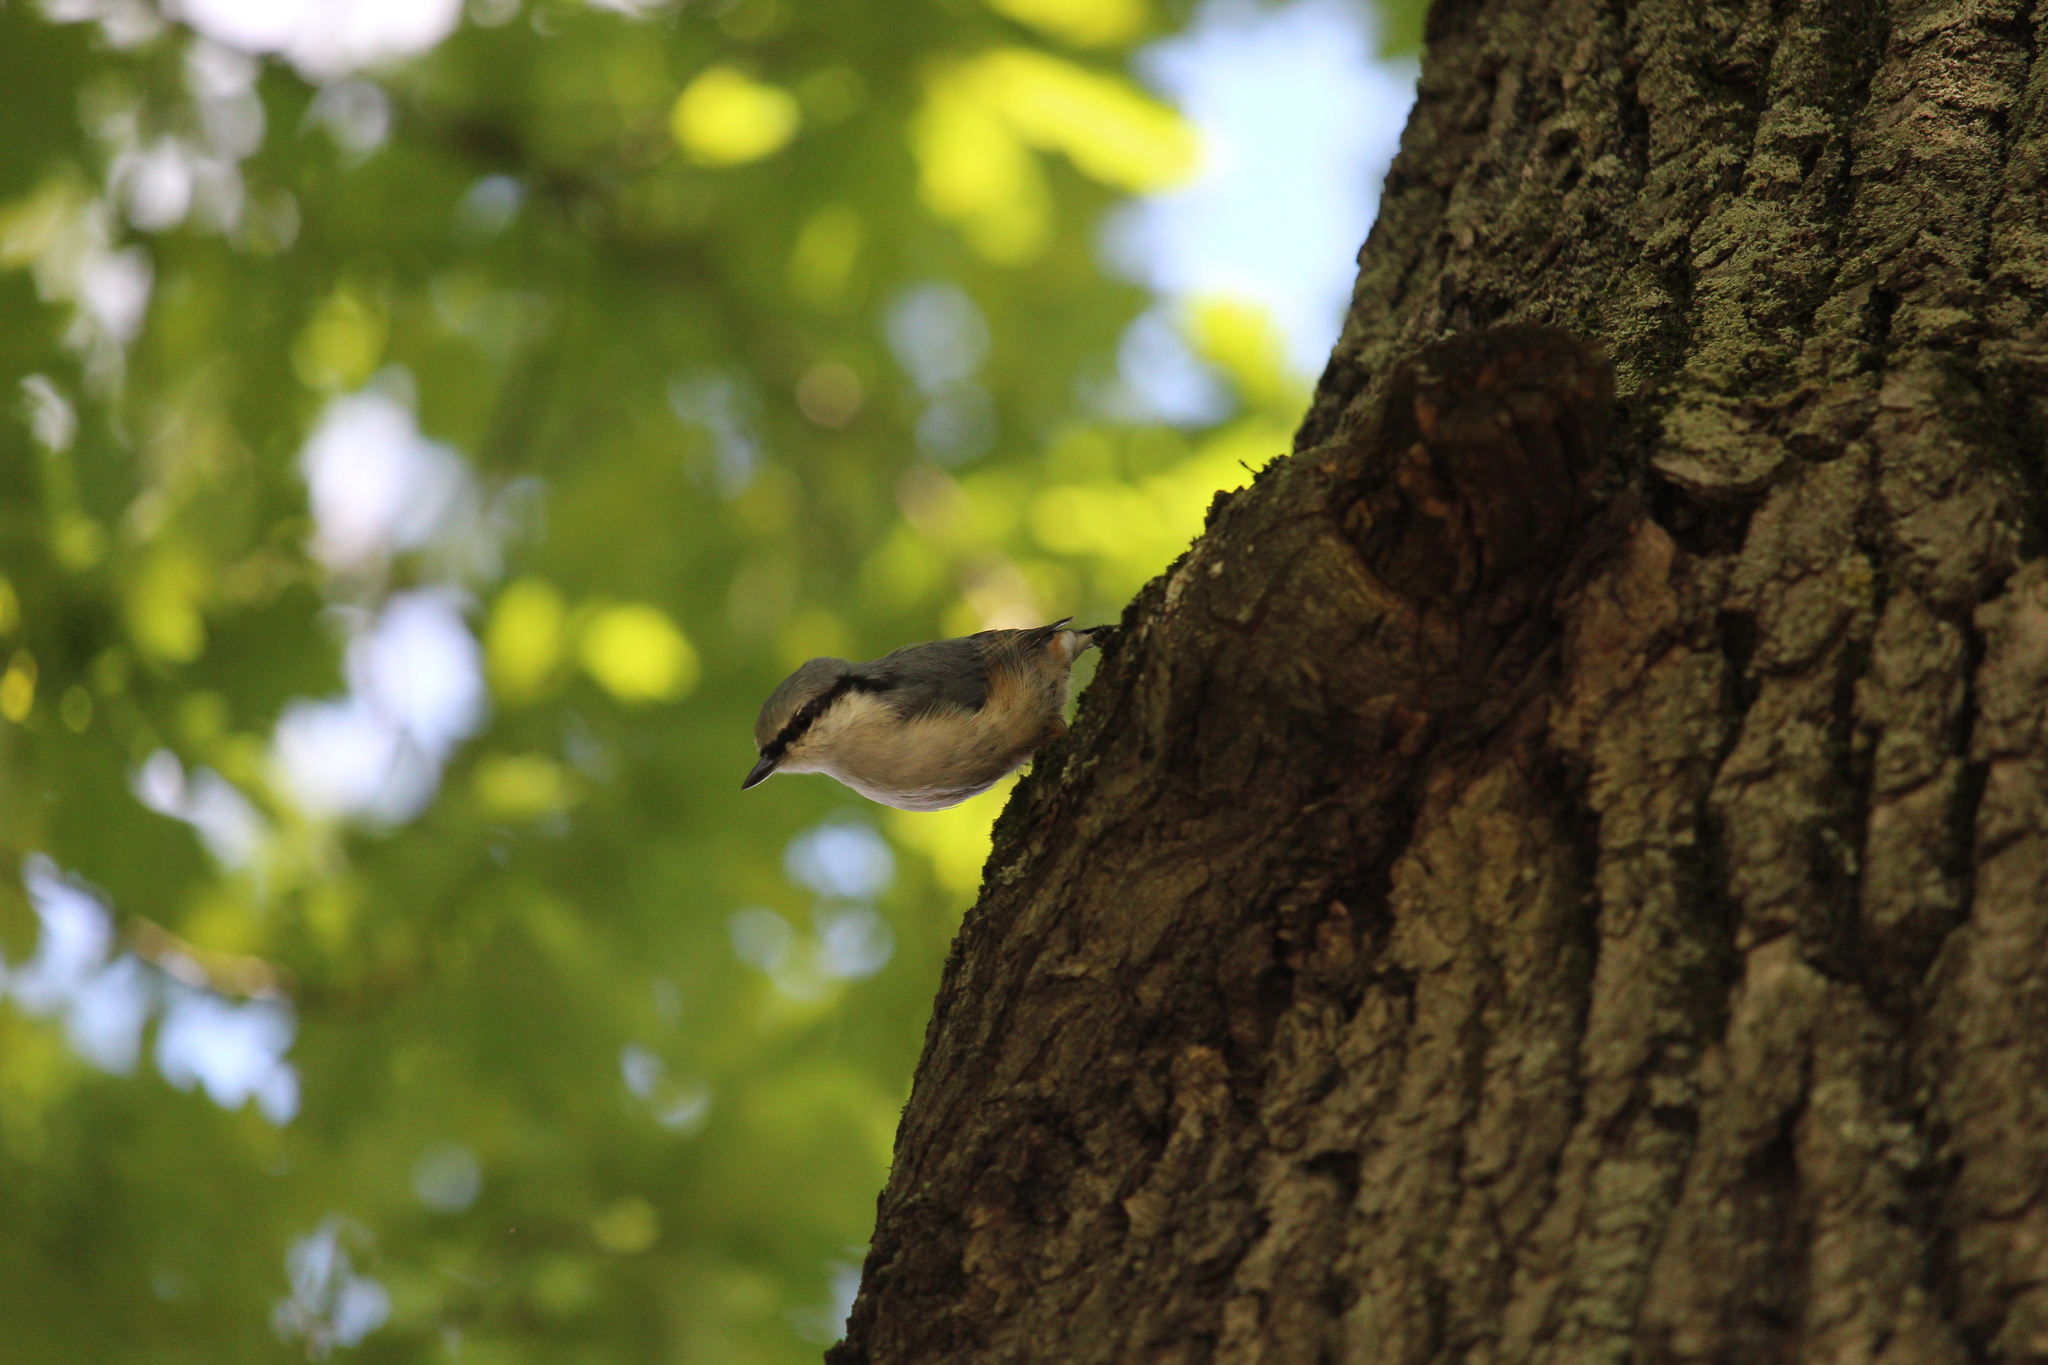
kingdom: Animalia
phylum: Chordata
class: Aves
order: Passeriformes
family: Sittidae
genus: Sitta
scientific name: Sitta europaea
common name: Eurasian nuthatch
